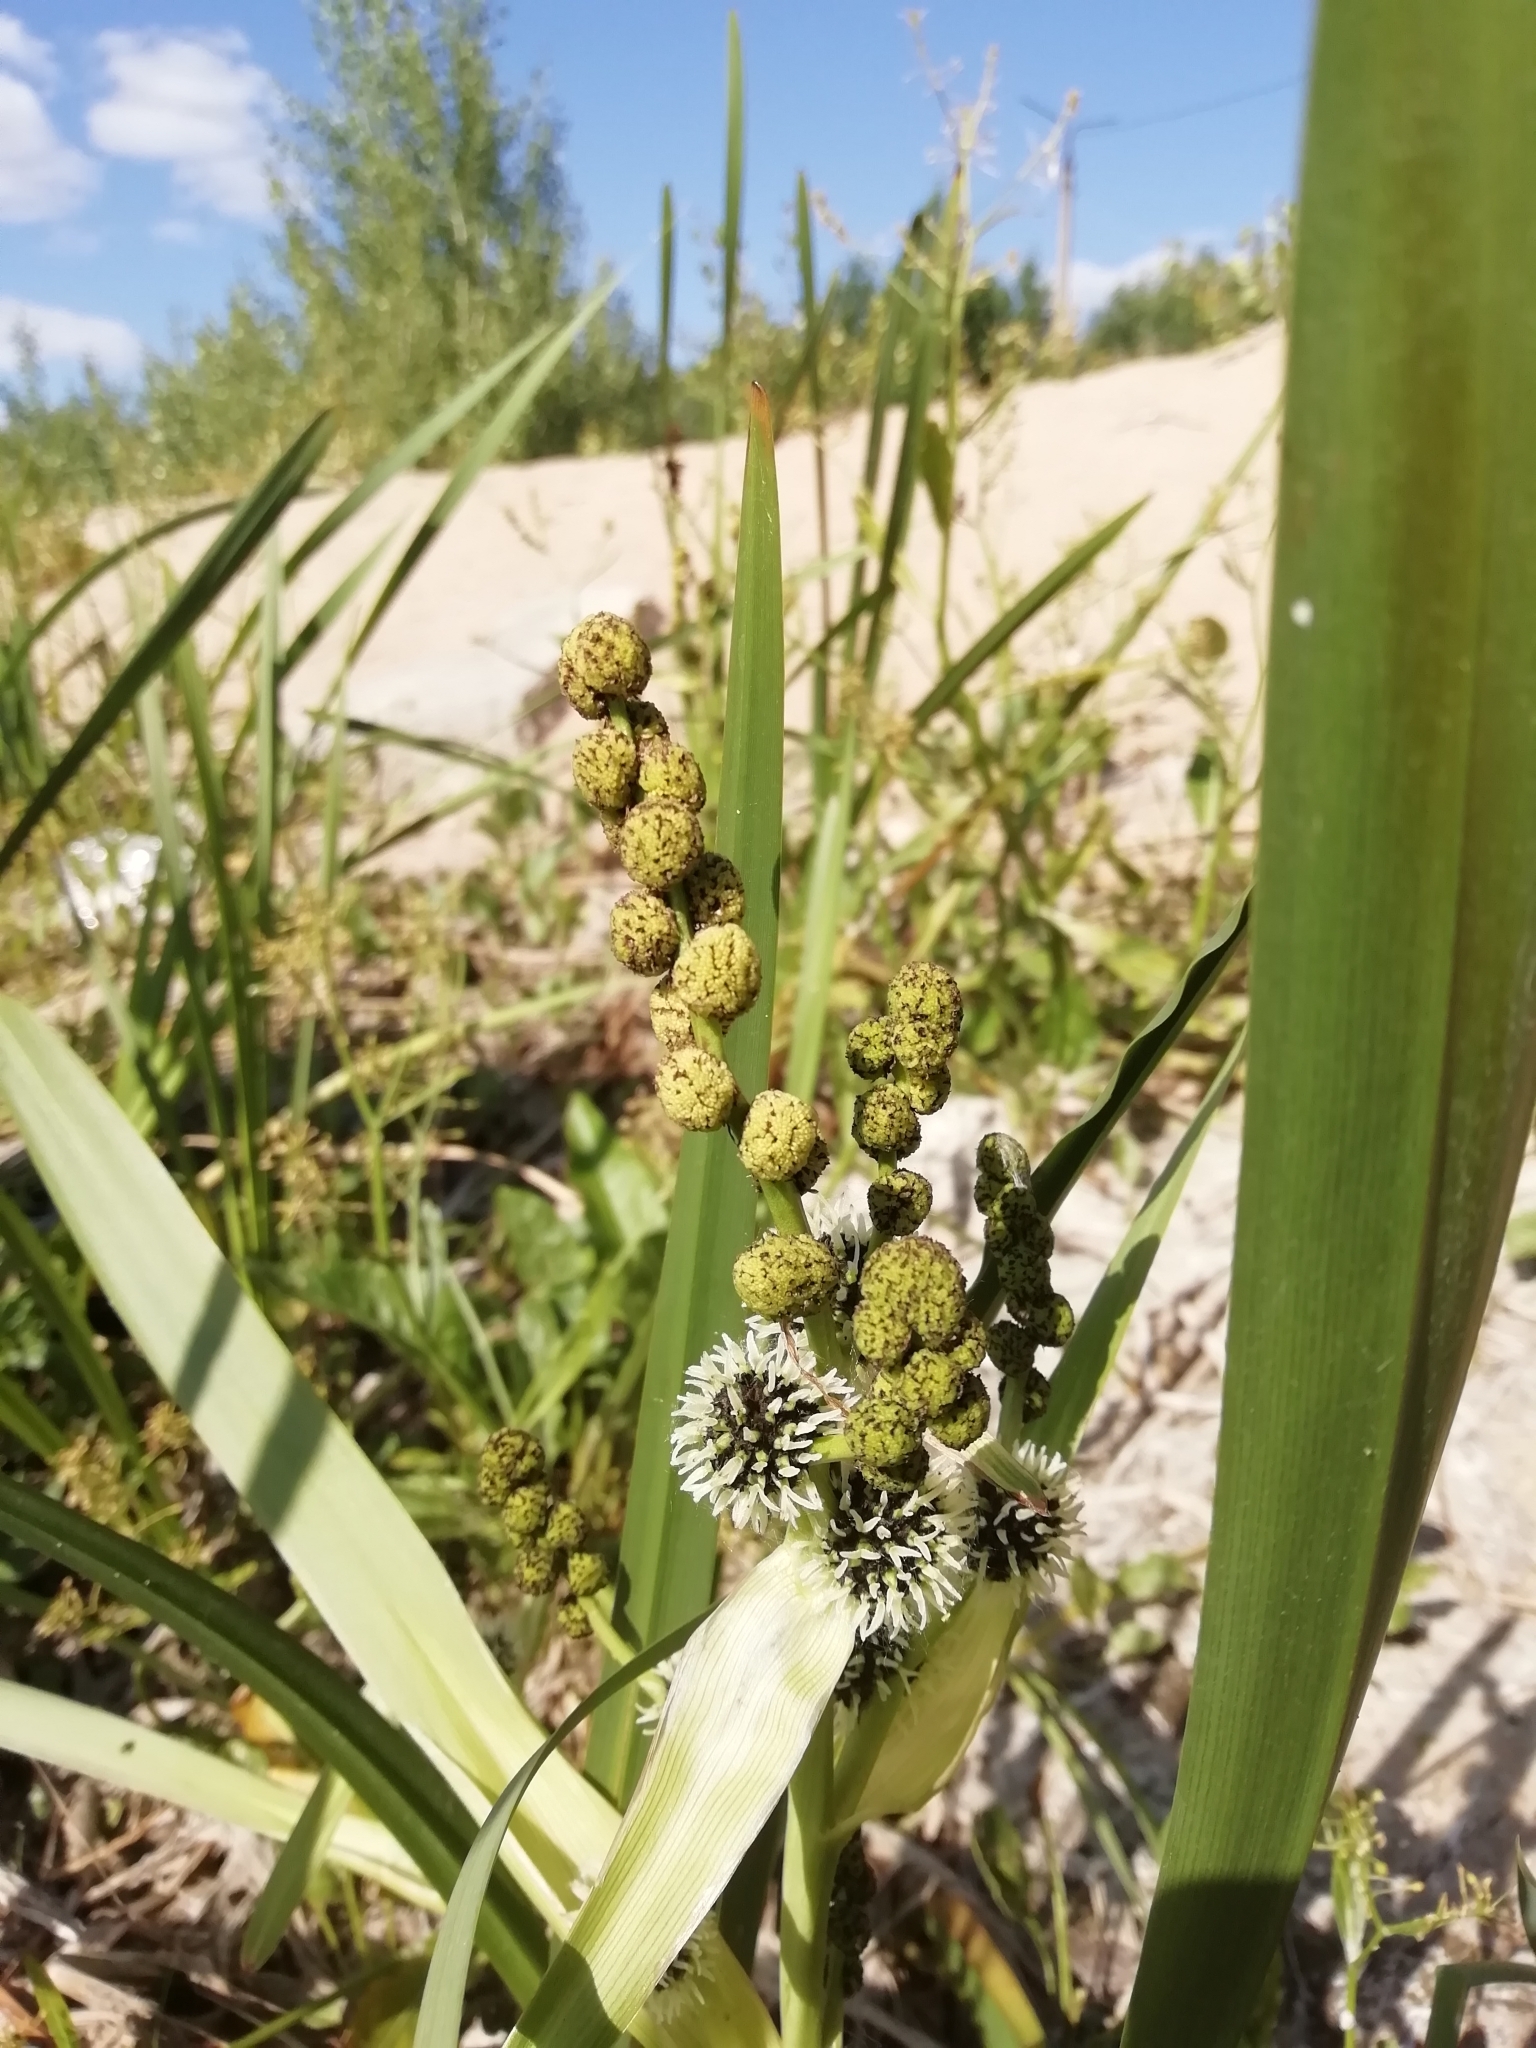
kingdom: Plantae
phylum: Tracheophyta
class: Liliopsida
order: Poales
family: Typhaceae
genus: Sparganium
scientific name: Sparganium erectum
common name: Branched bur-reed
